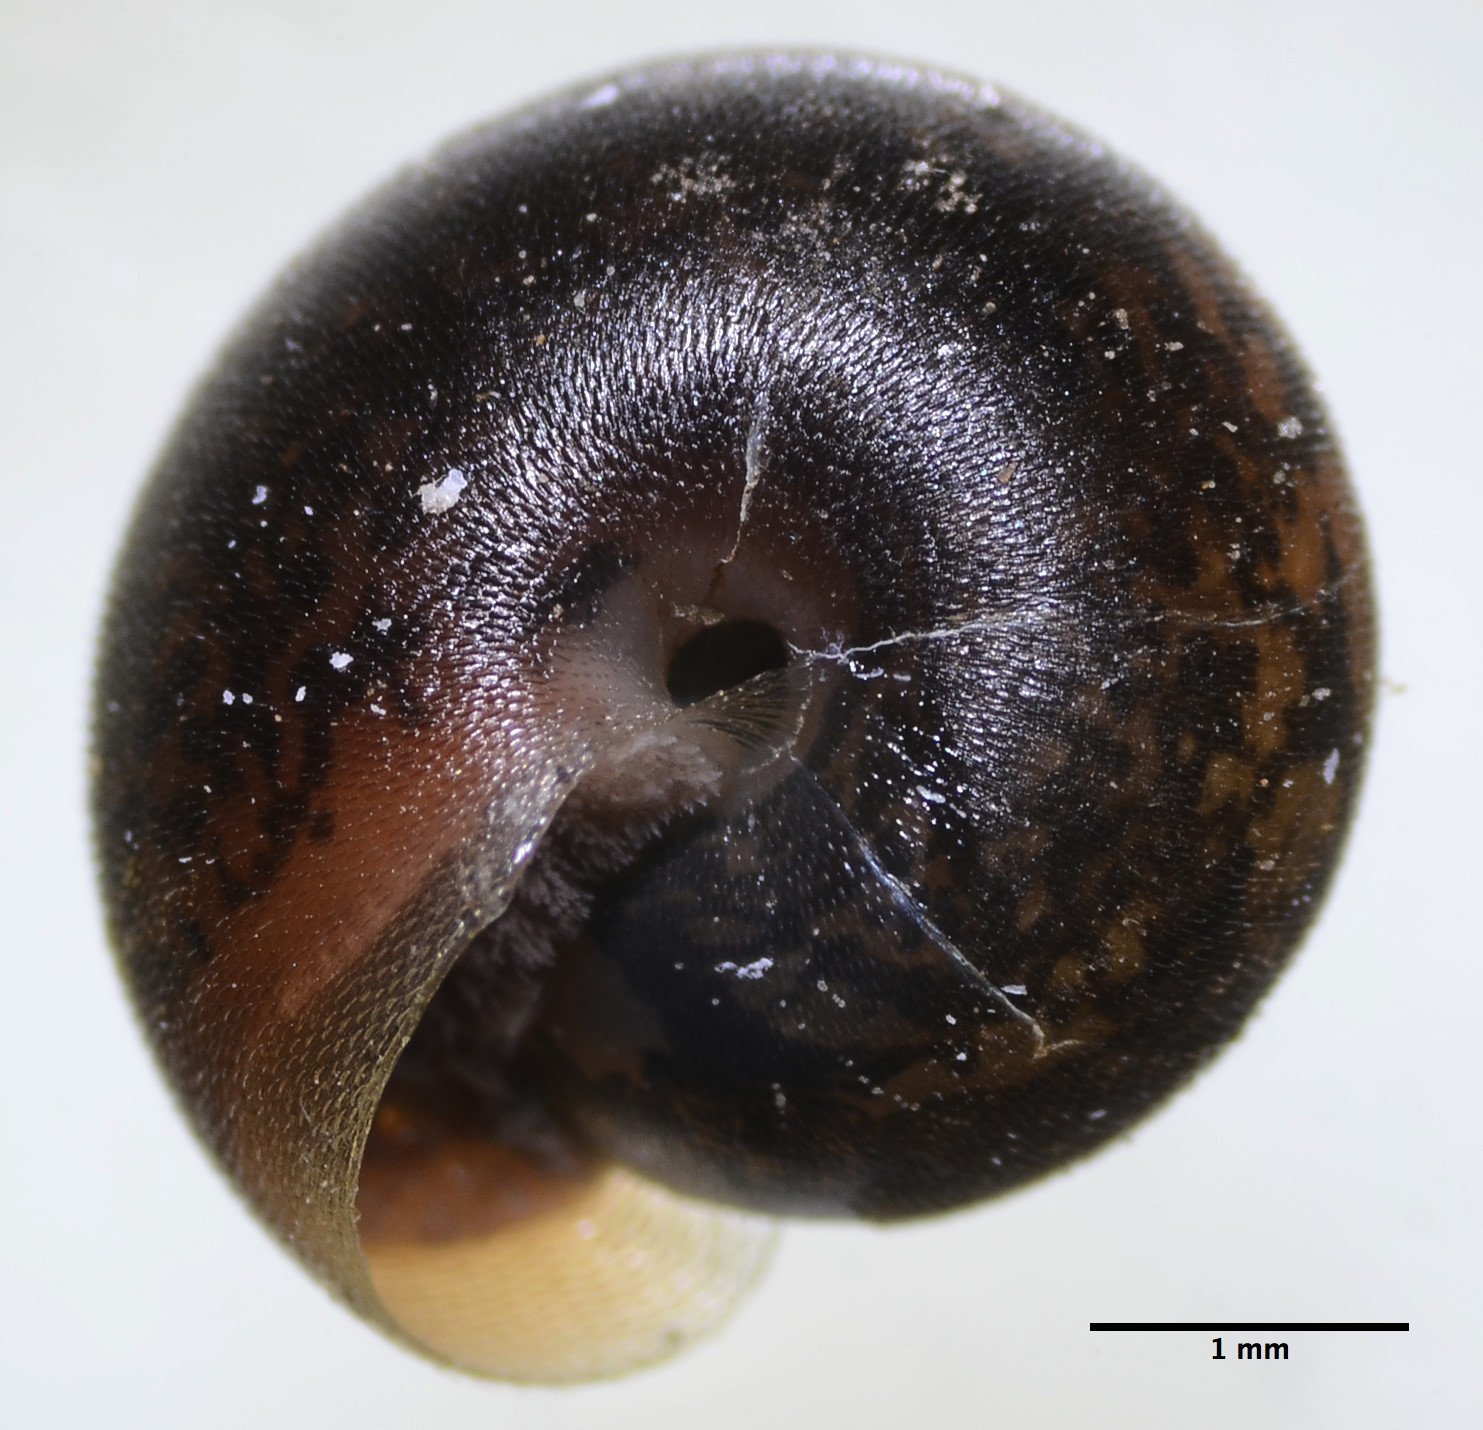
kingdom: Animalia
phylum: Mollusca
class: Gastropoda
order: Stylommatophora
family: Polygyridae
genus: Trilobopsis
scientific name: Trilobopsis
